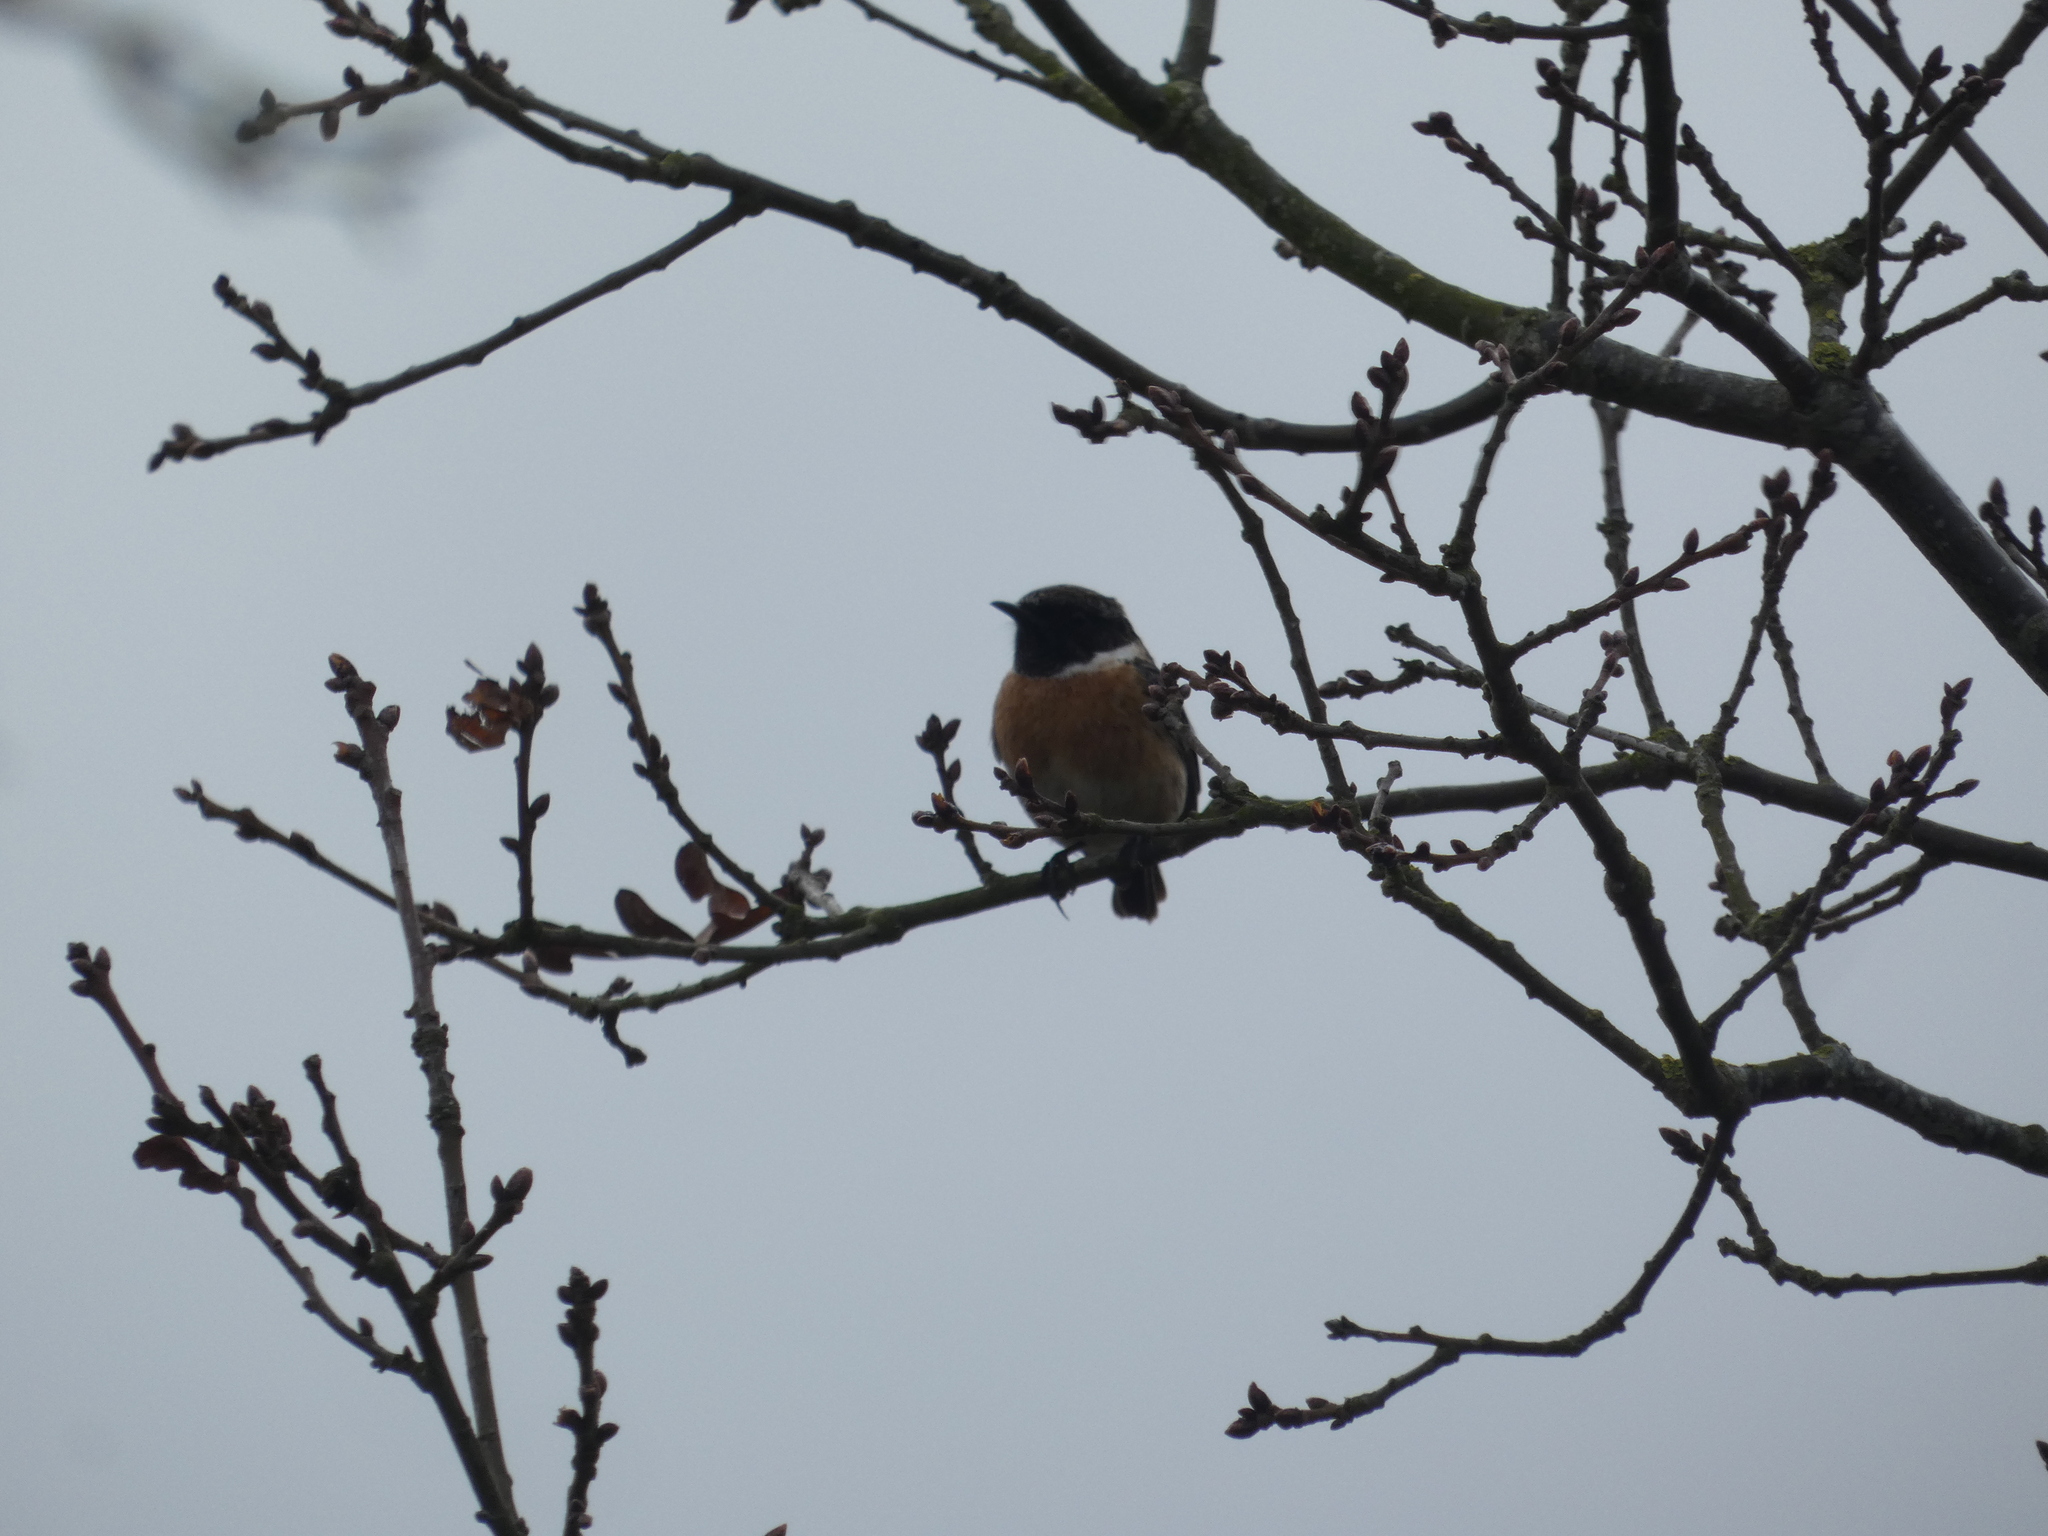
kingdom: Animalia
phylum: Chordata
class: Aves
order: Passeriformes
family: Muscicapidae
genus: Saxicola
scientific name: Saxicola rubicola
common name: European stonechat
